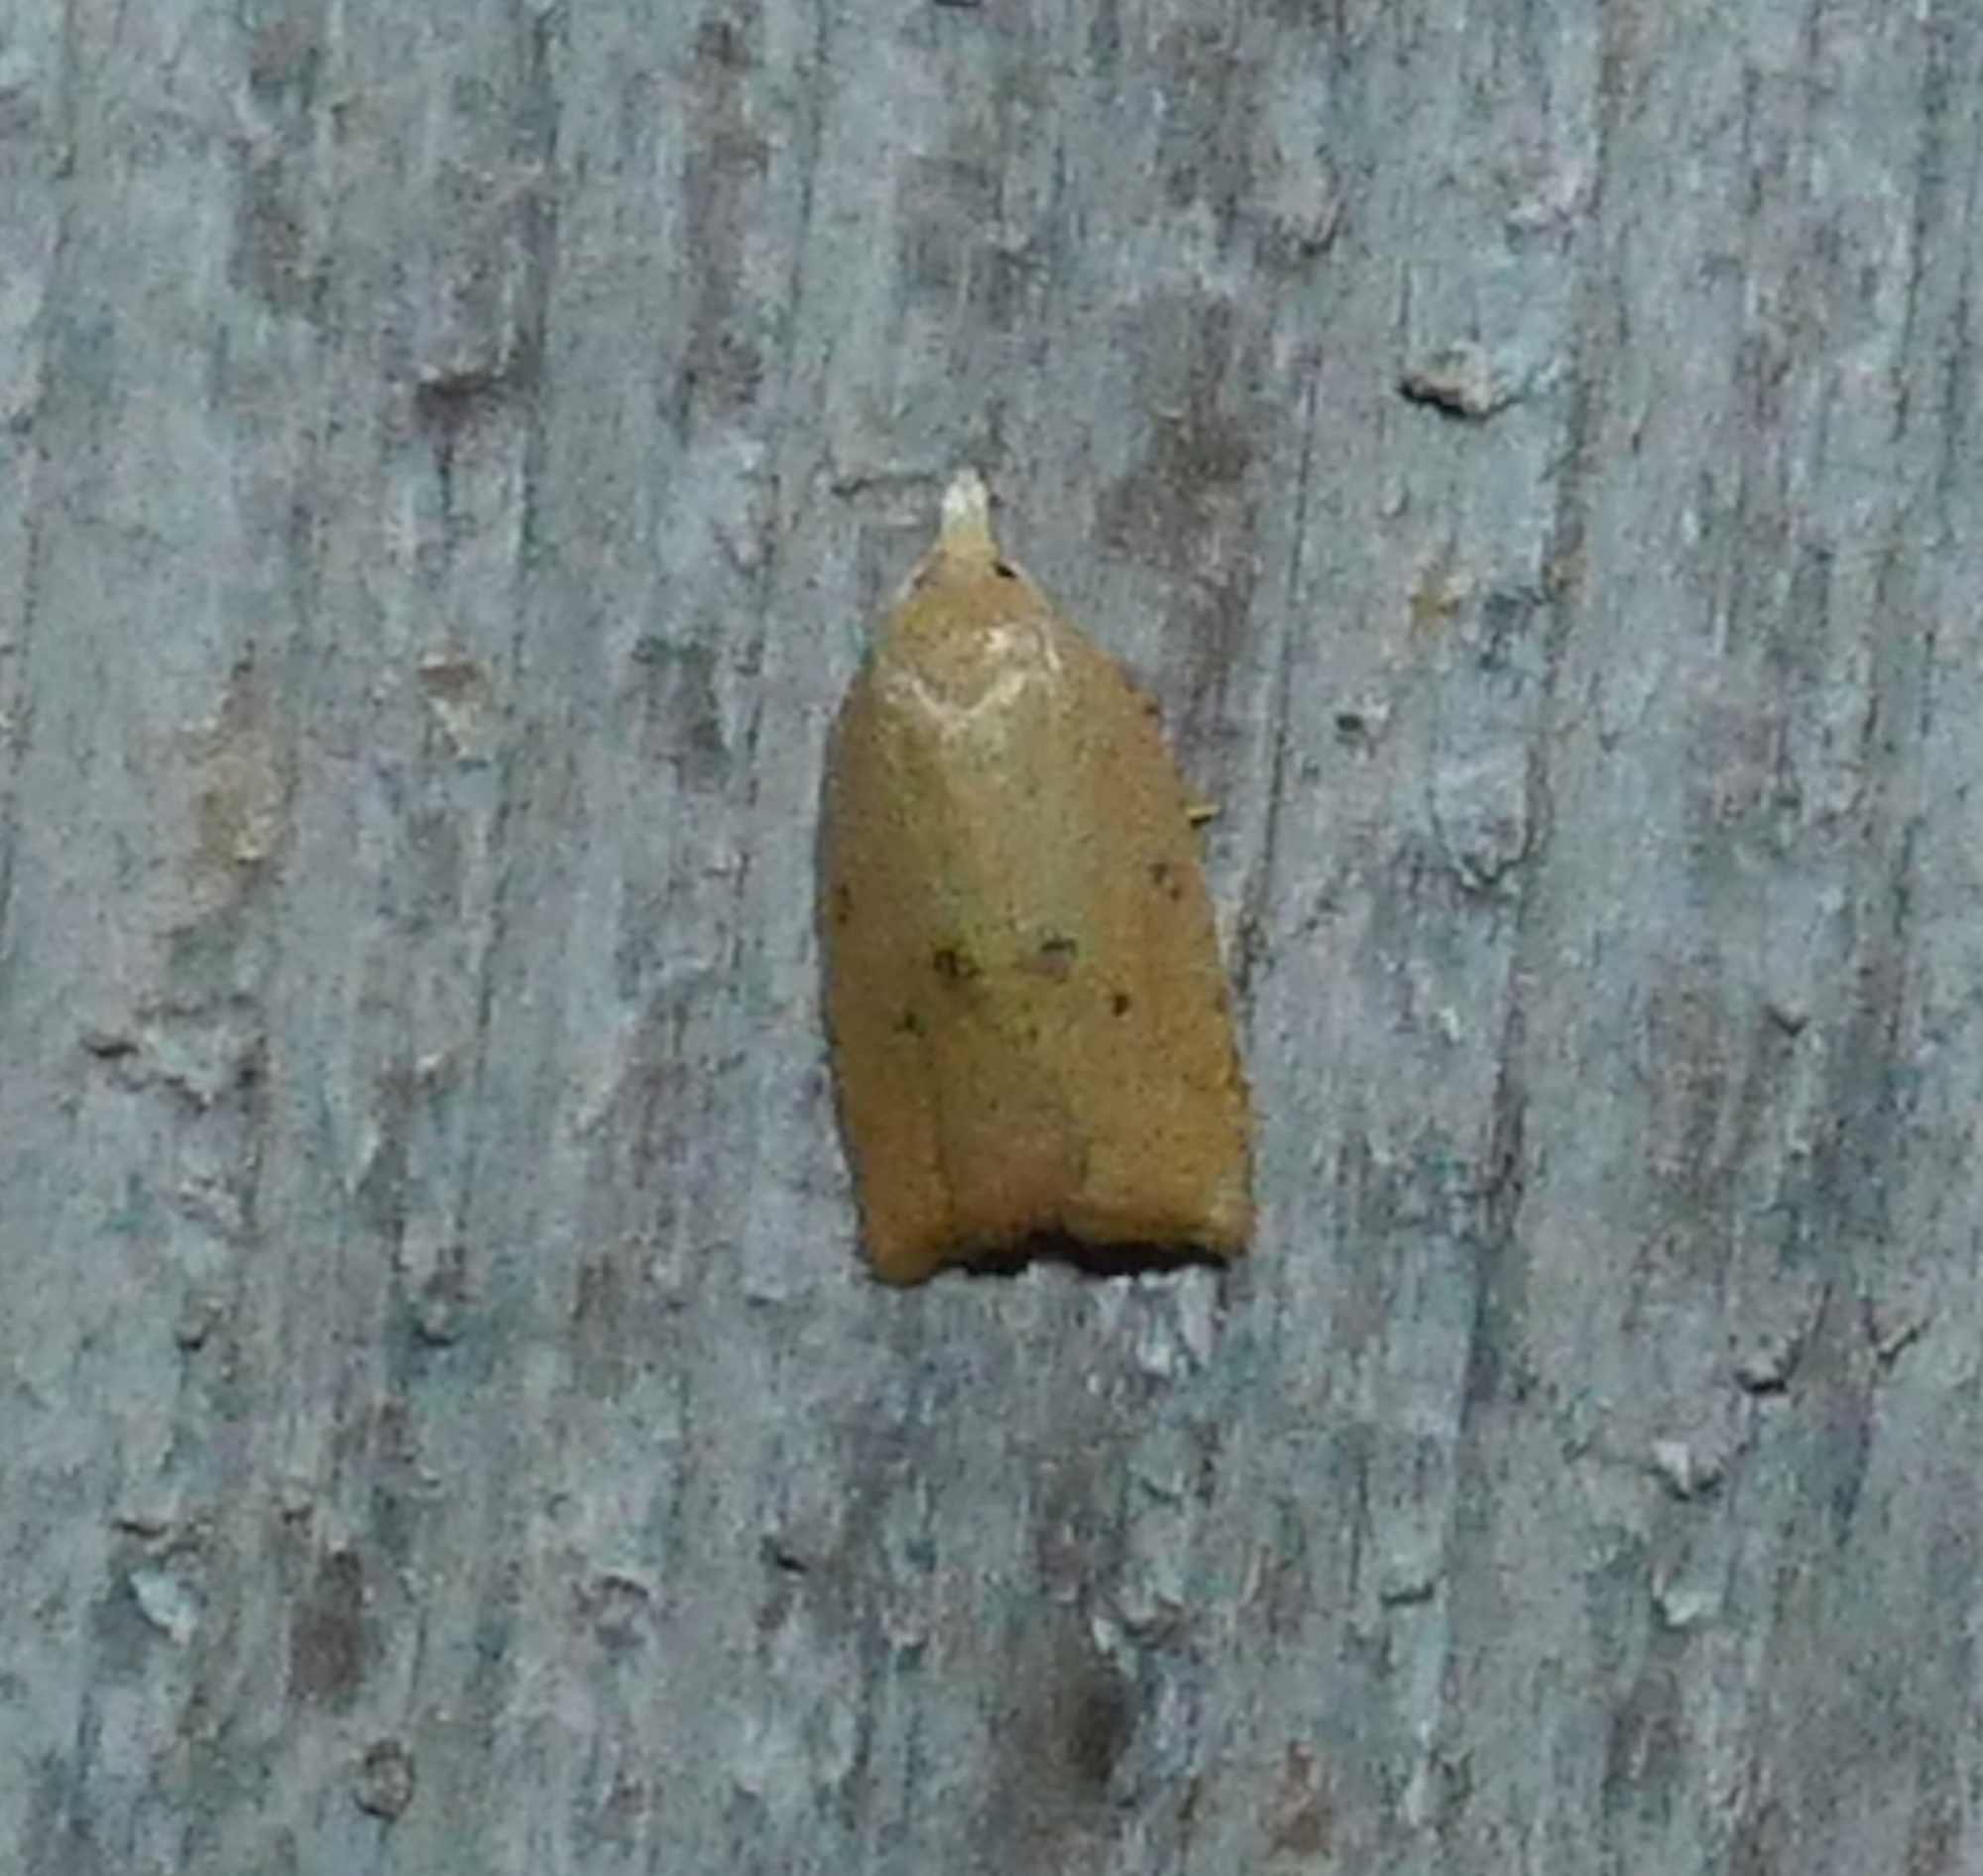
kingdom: Animalia
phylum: Arthropoda
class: Insecta
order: Lepidoptera
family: Tortricidae
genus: Coelostathma
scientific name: Coelostathma placidana
